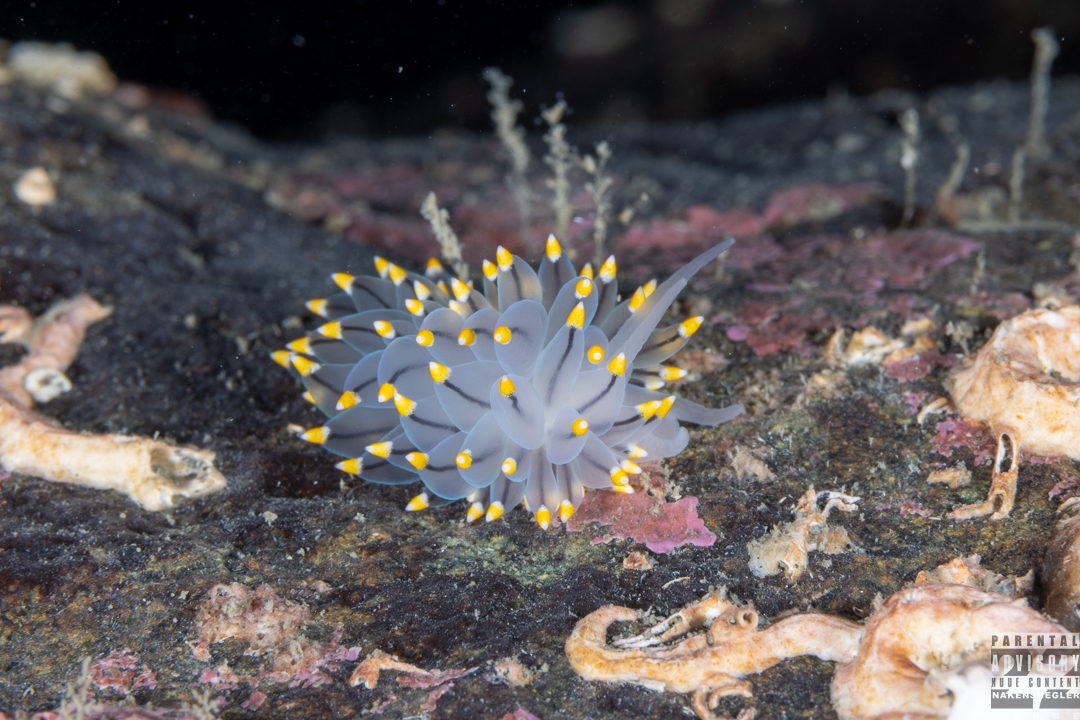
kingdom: Animalia
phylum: Mollusca
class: Gastropoda
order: Nudibranchia
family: Eubranchidae
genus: Eubranchus
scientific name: Eubranchus tricolor
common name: Painted balloon aeolis
